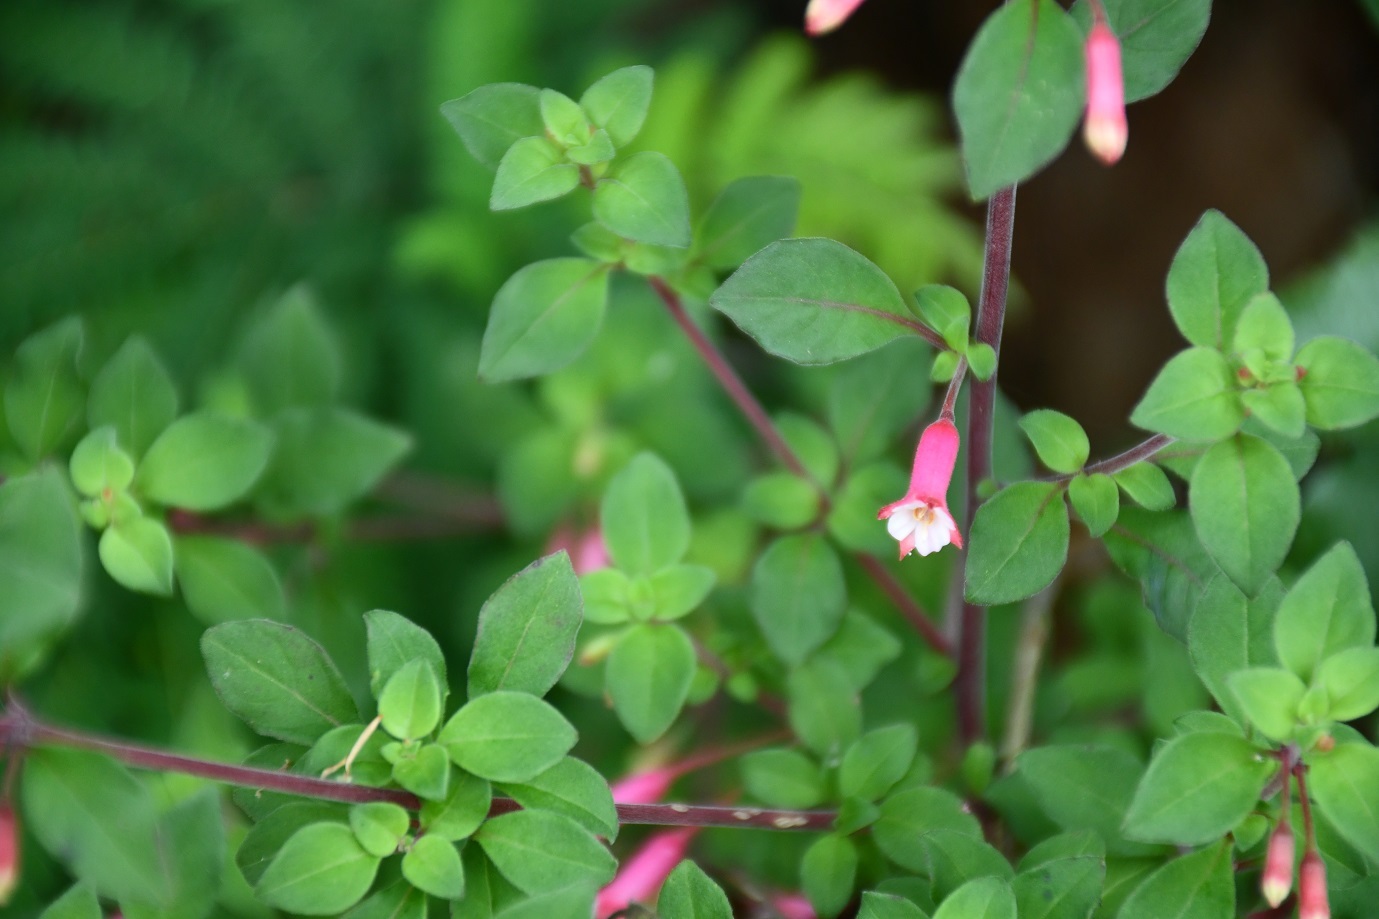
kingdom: Plantae
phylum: Tracheophyta
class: Magnoliopsida
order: Myrtales
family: Onagraceae
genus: Fuchsia
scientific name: Fuchsia ravenii
